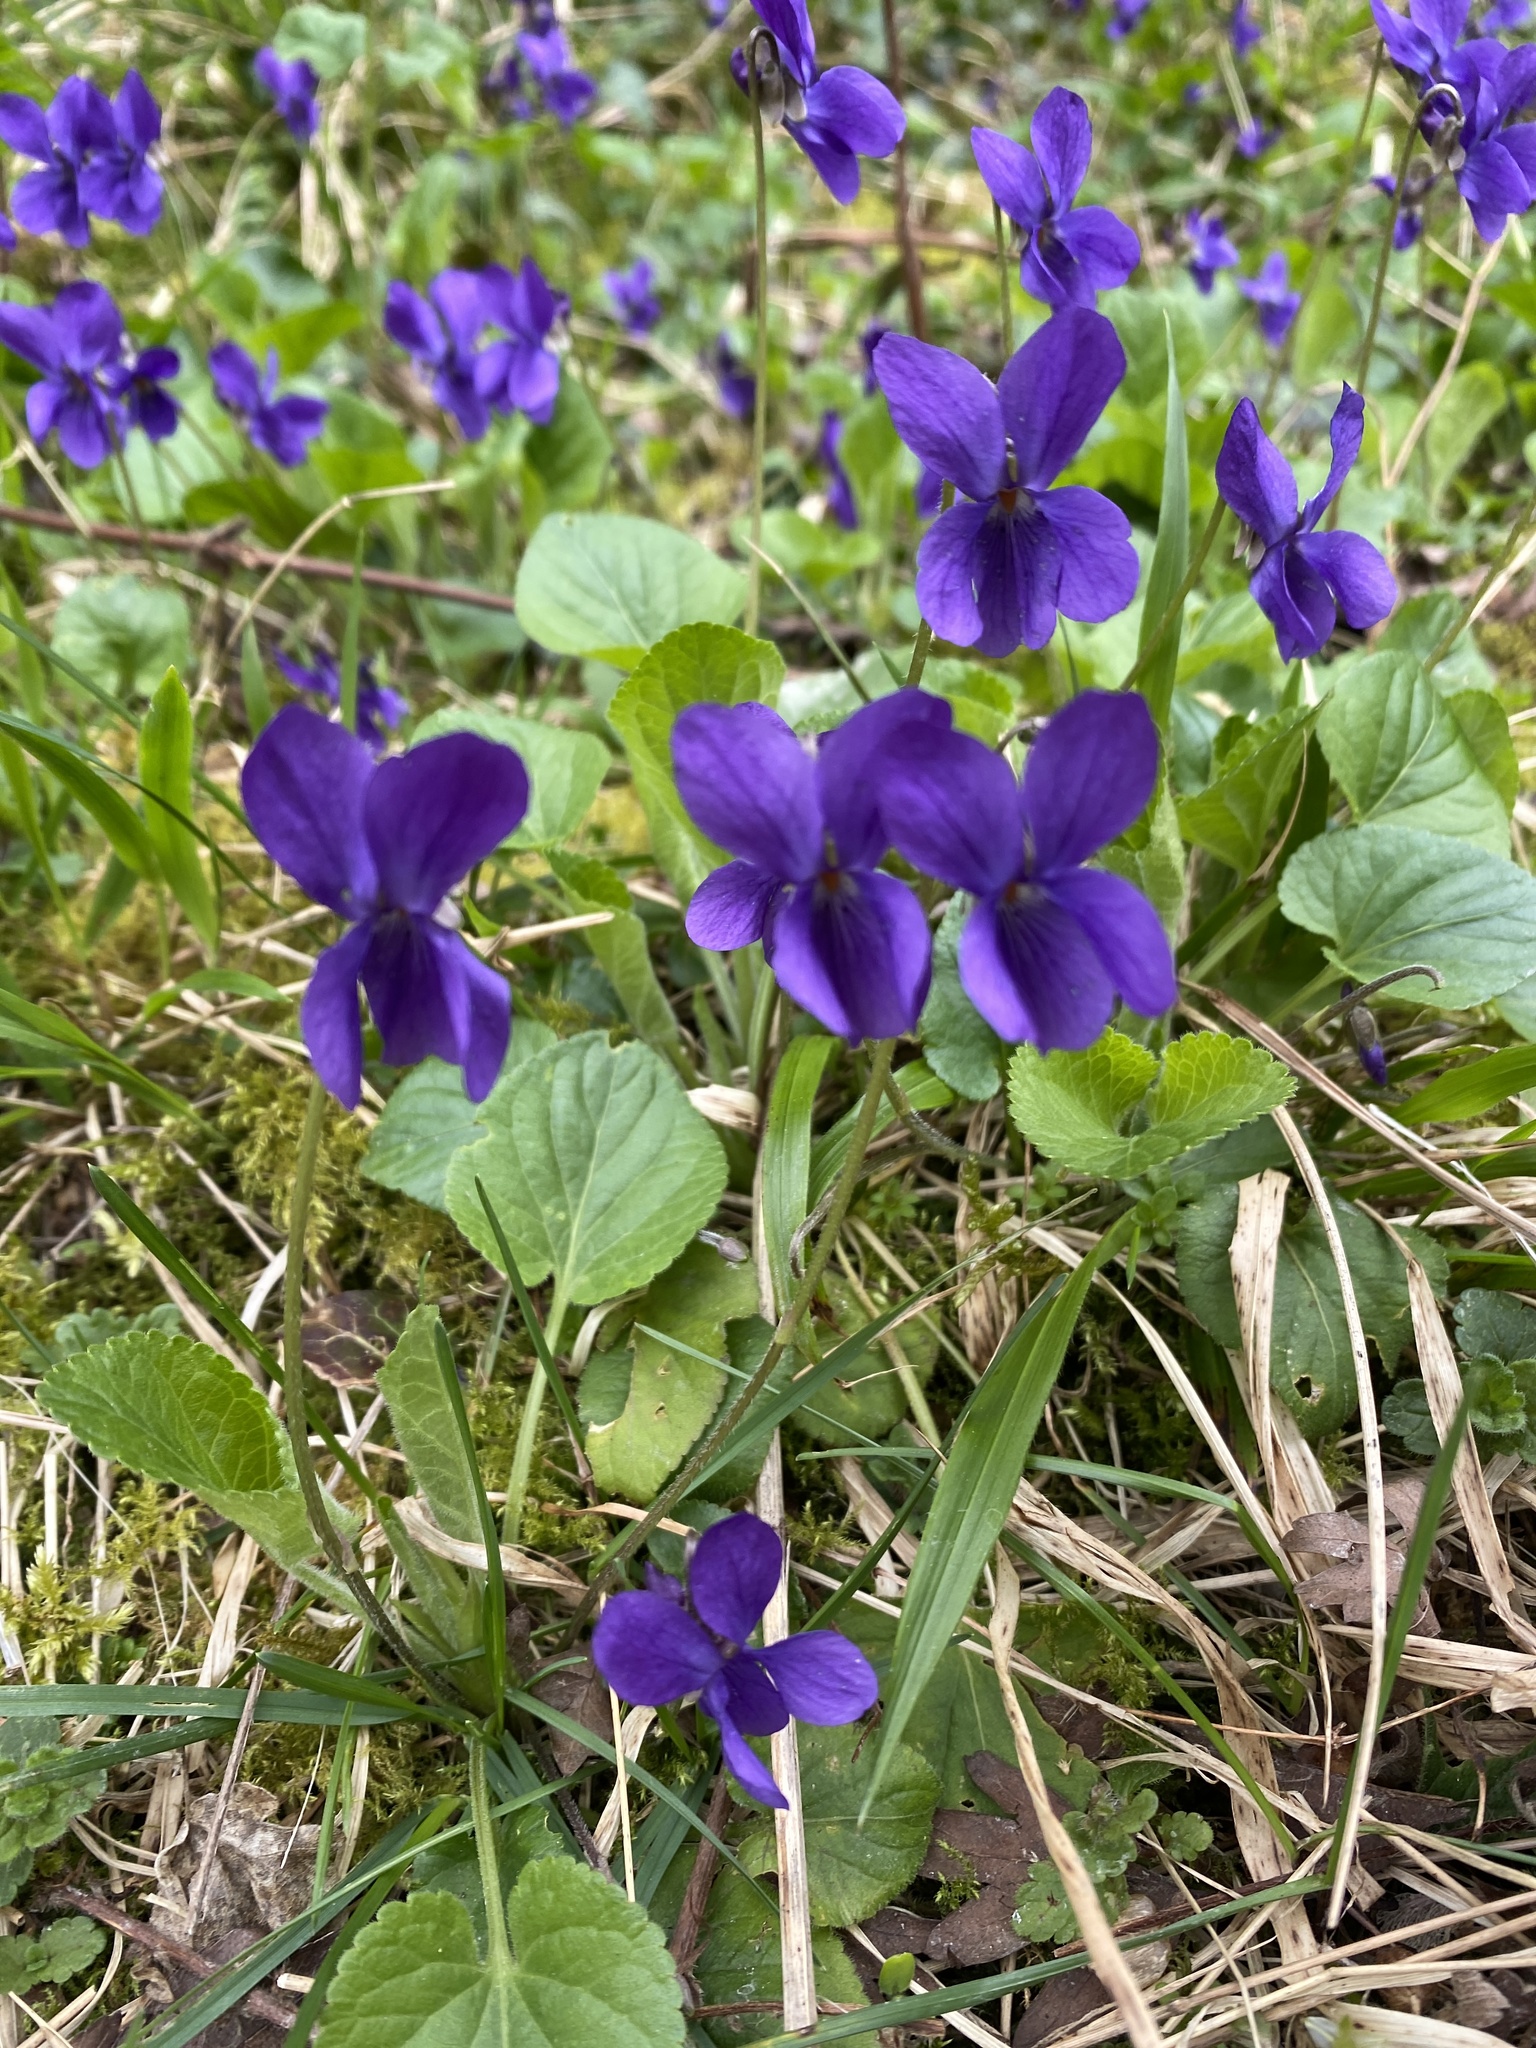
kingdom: Plantae
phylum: Tracheophyta
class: Magnoliopsida
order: Malpighiales
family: Violaceae
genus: Viola
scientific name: Viola odorata
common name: Sweet violet
